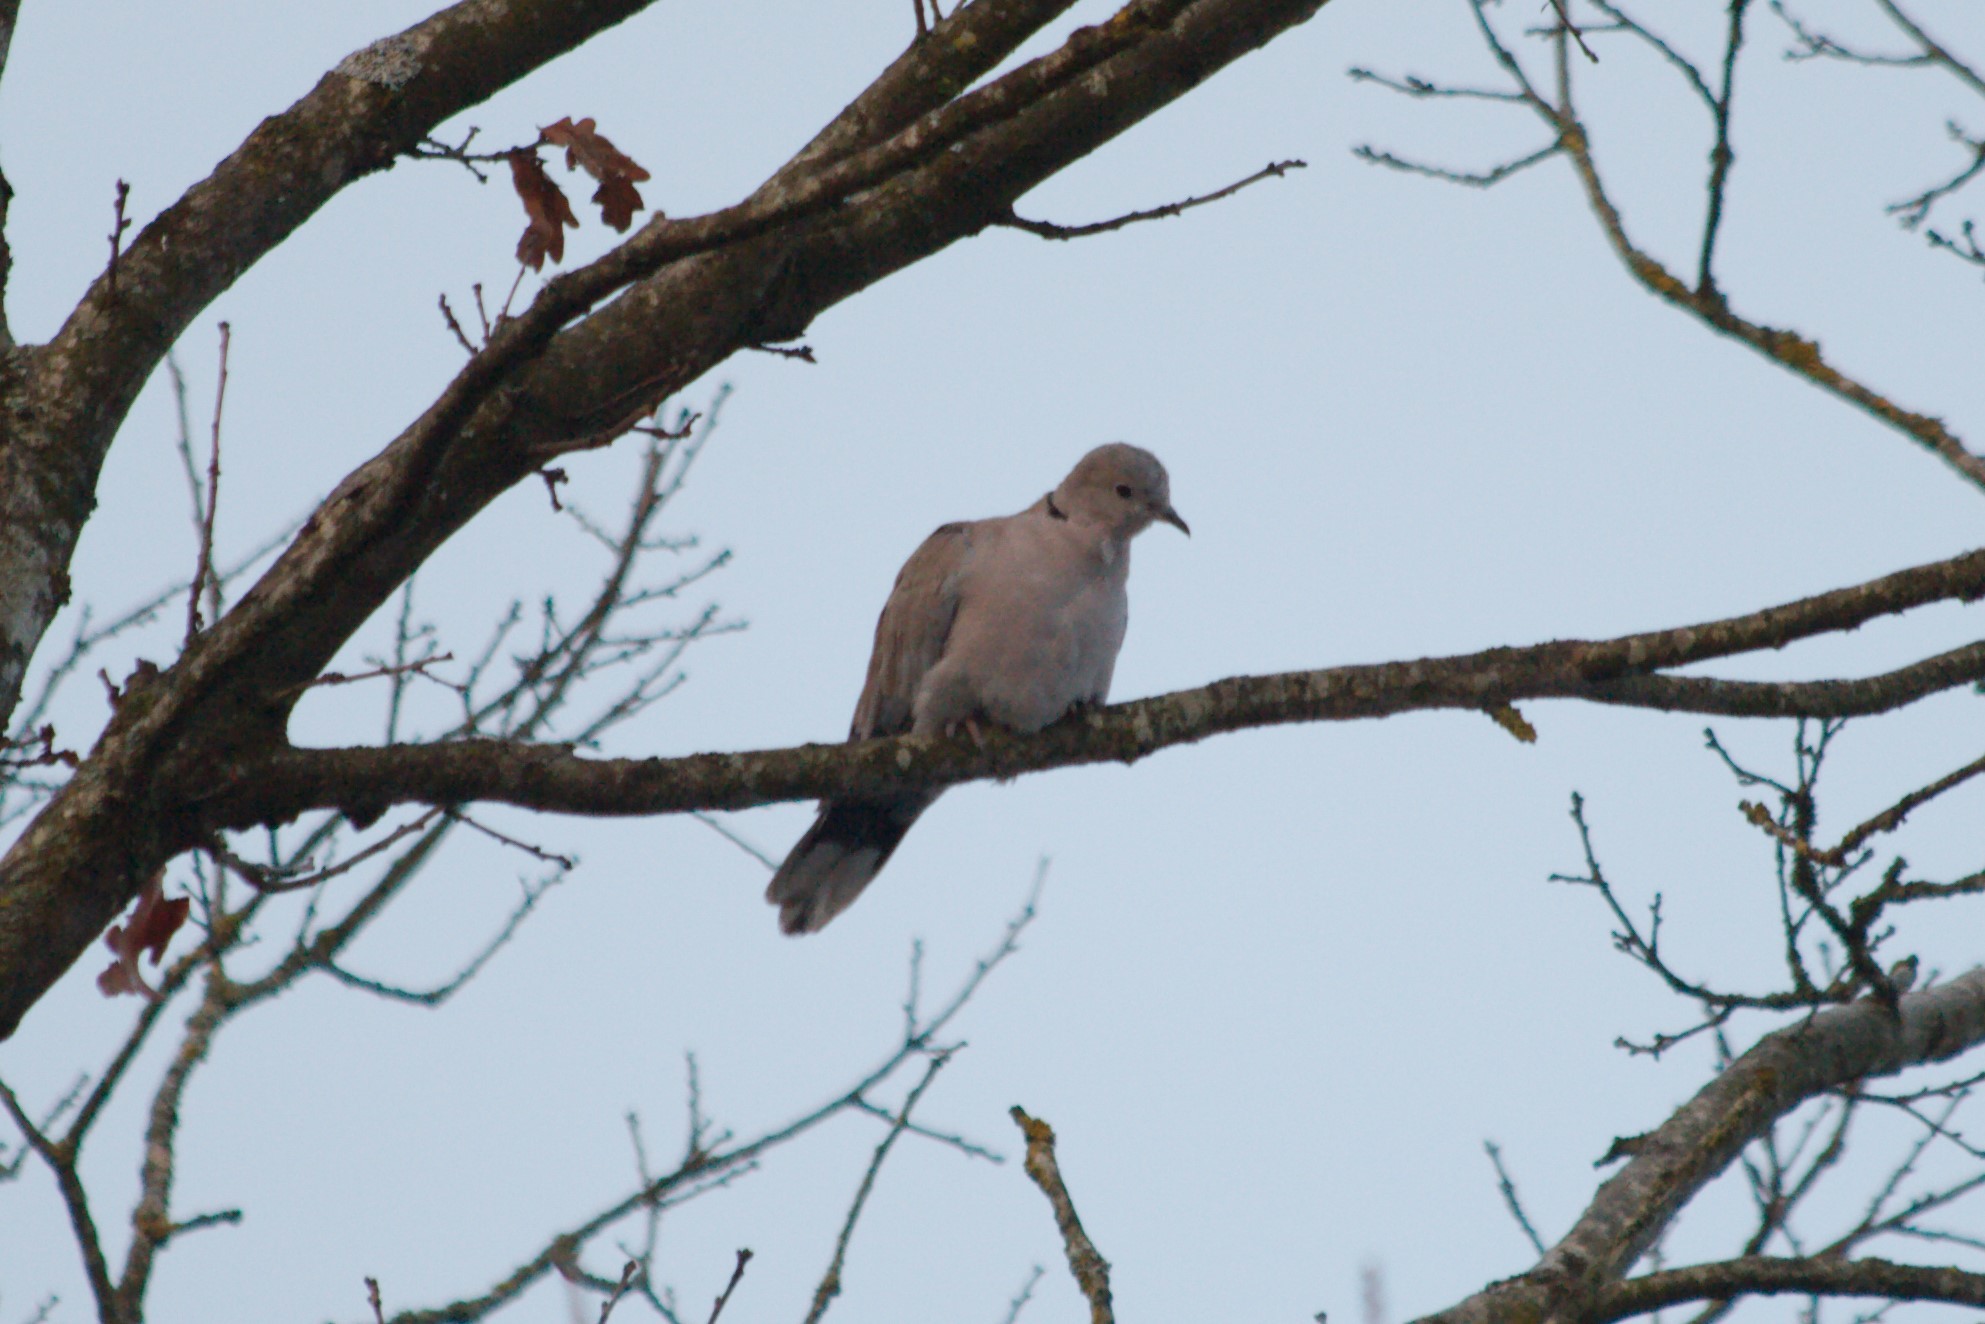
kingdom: Animalia
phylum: Chordata
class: Aves
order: Columbiformes
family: Columbidae
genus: Streptopelia
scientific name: Streptopelia decaocto
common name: Eurasian collared dove
